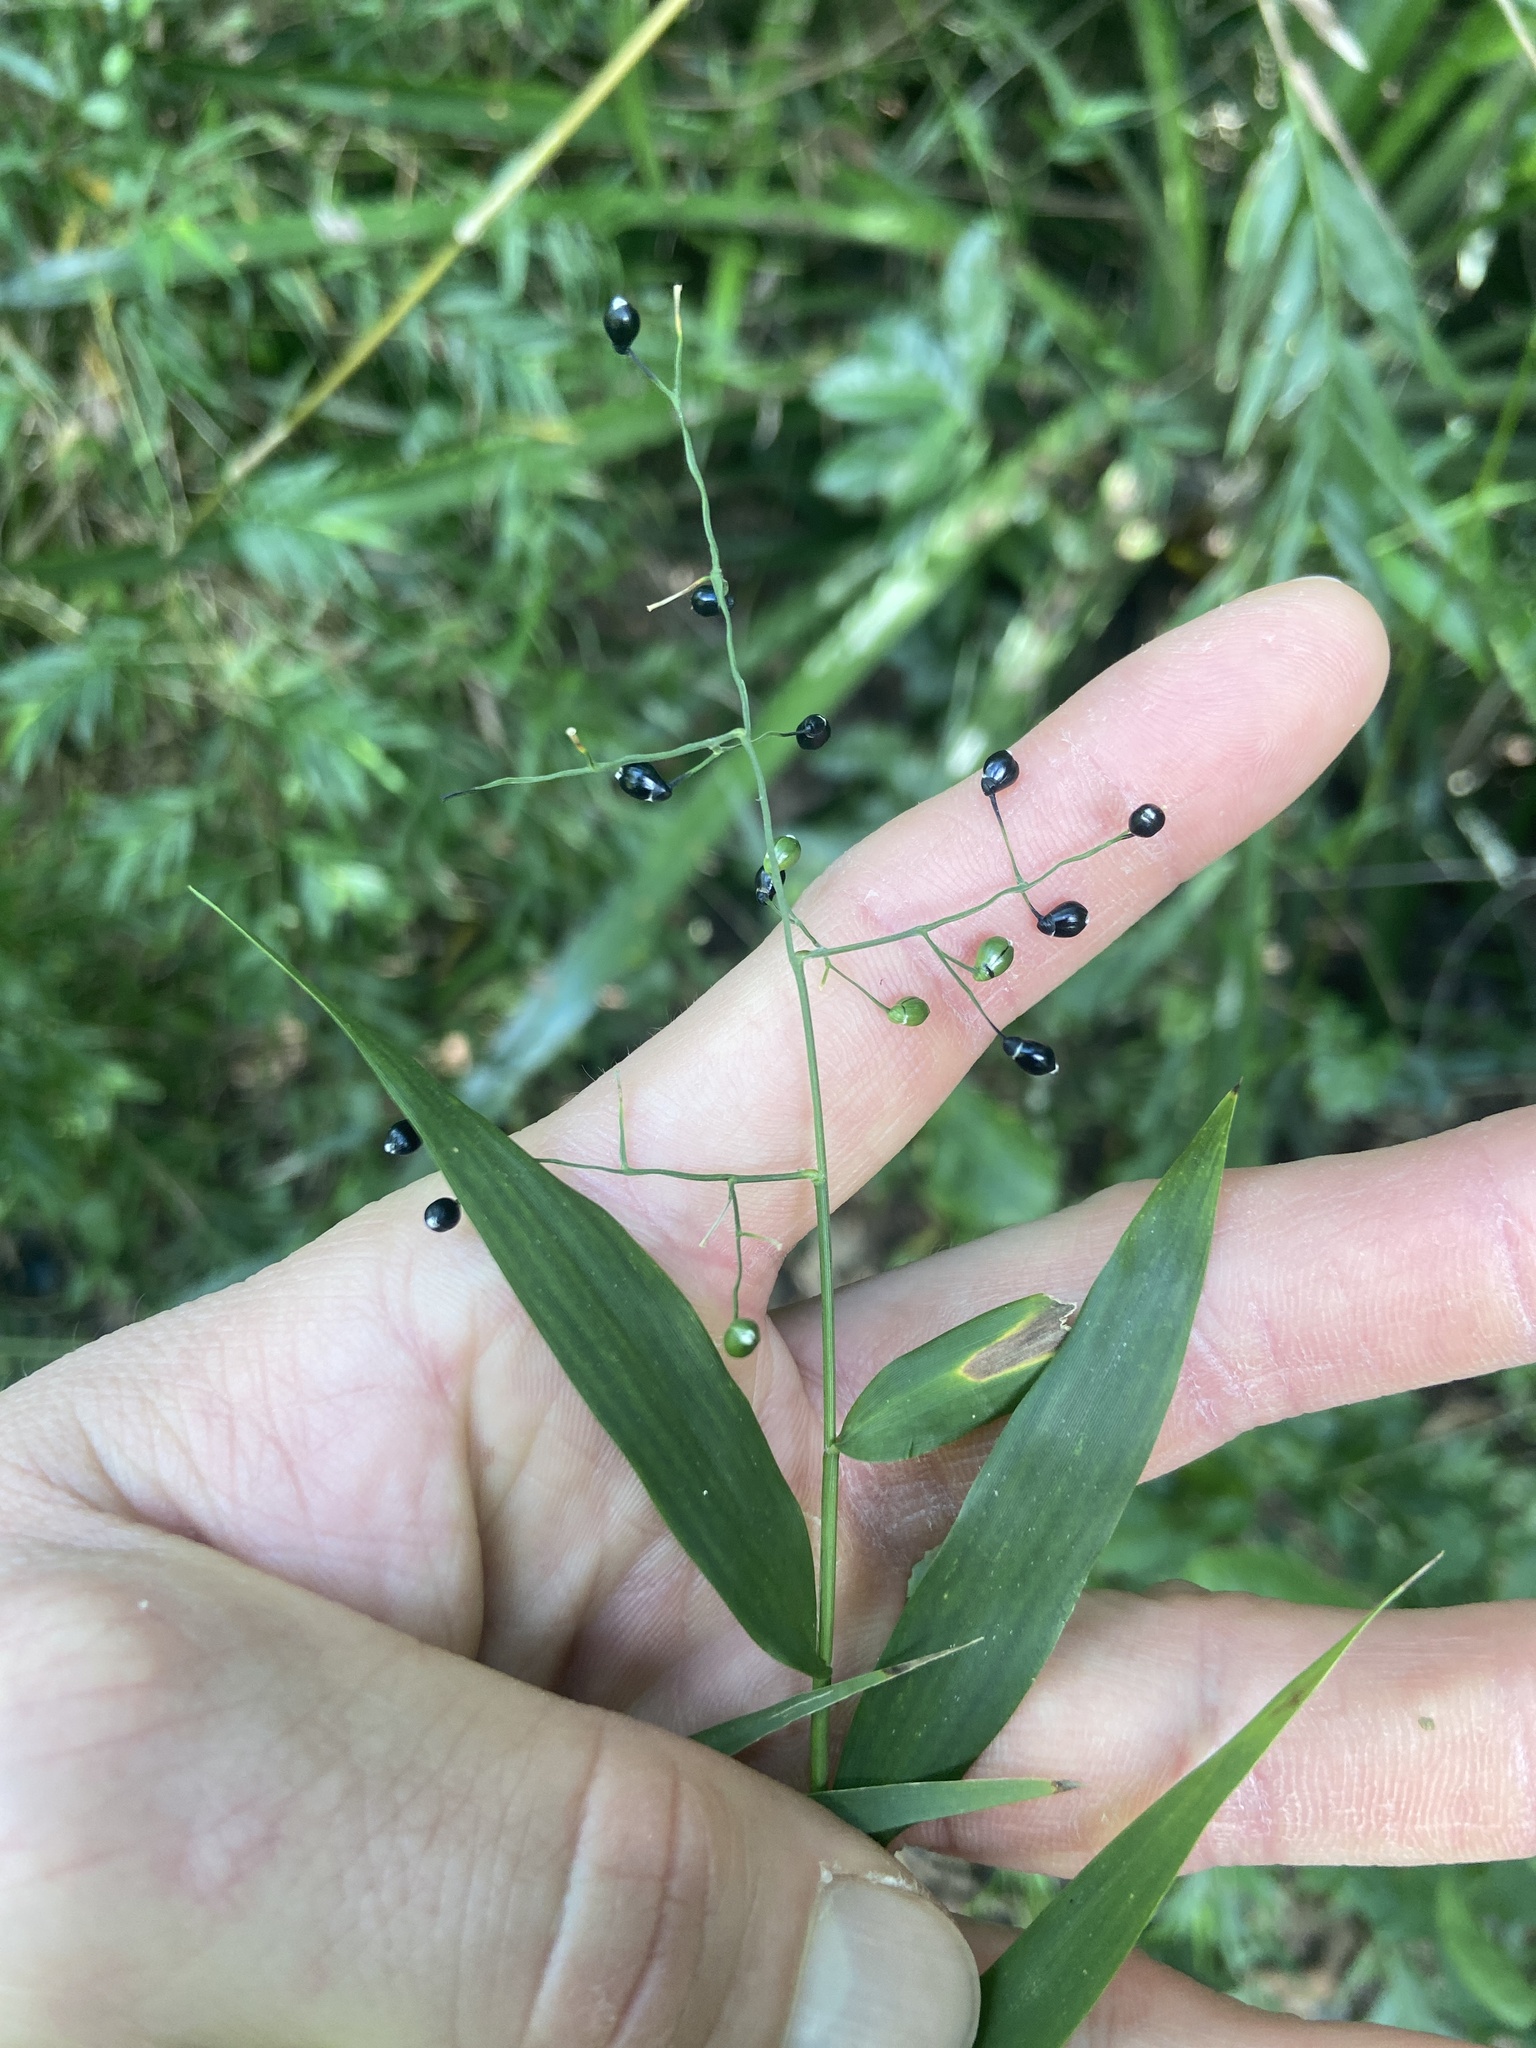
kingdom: Plantae
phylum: Tracheophyta
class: Liliopsida
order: Poales
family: Poaceae
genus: Lasiacis
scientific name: Lasiacis divaricata
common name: Smallcane
